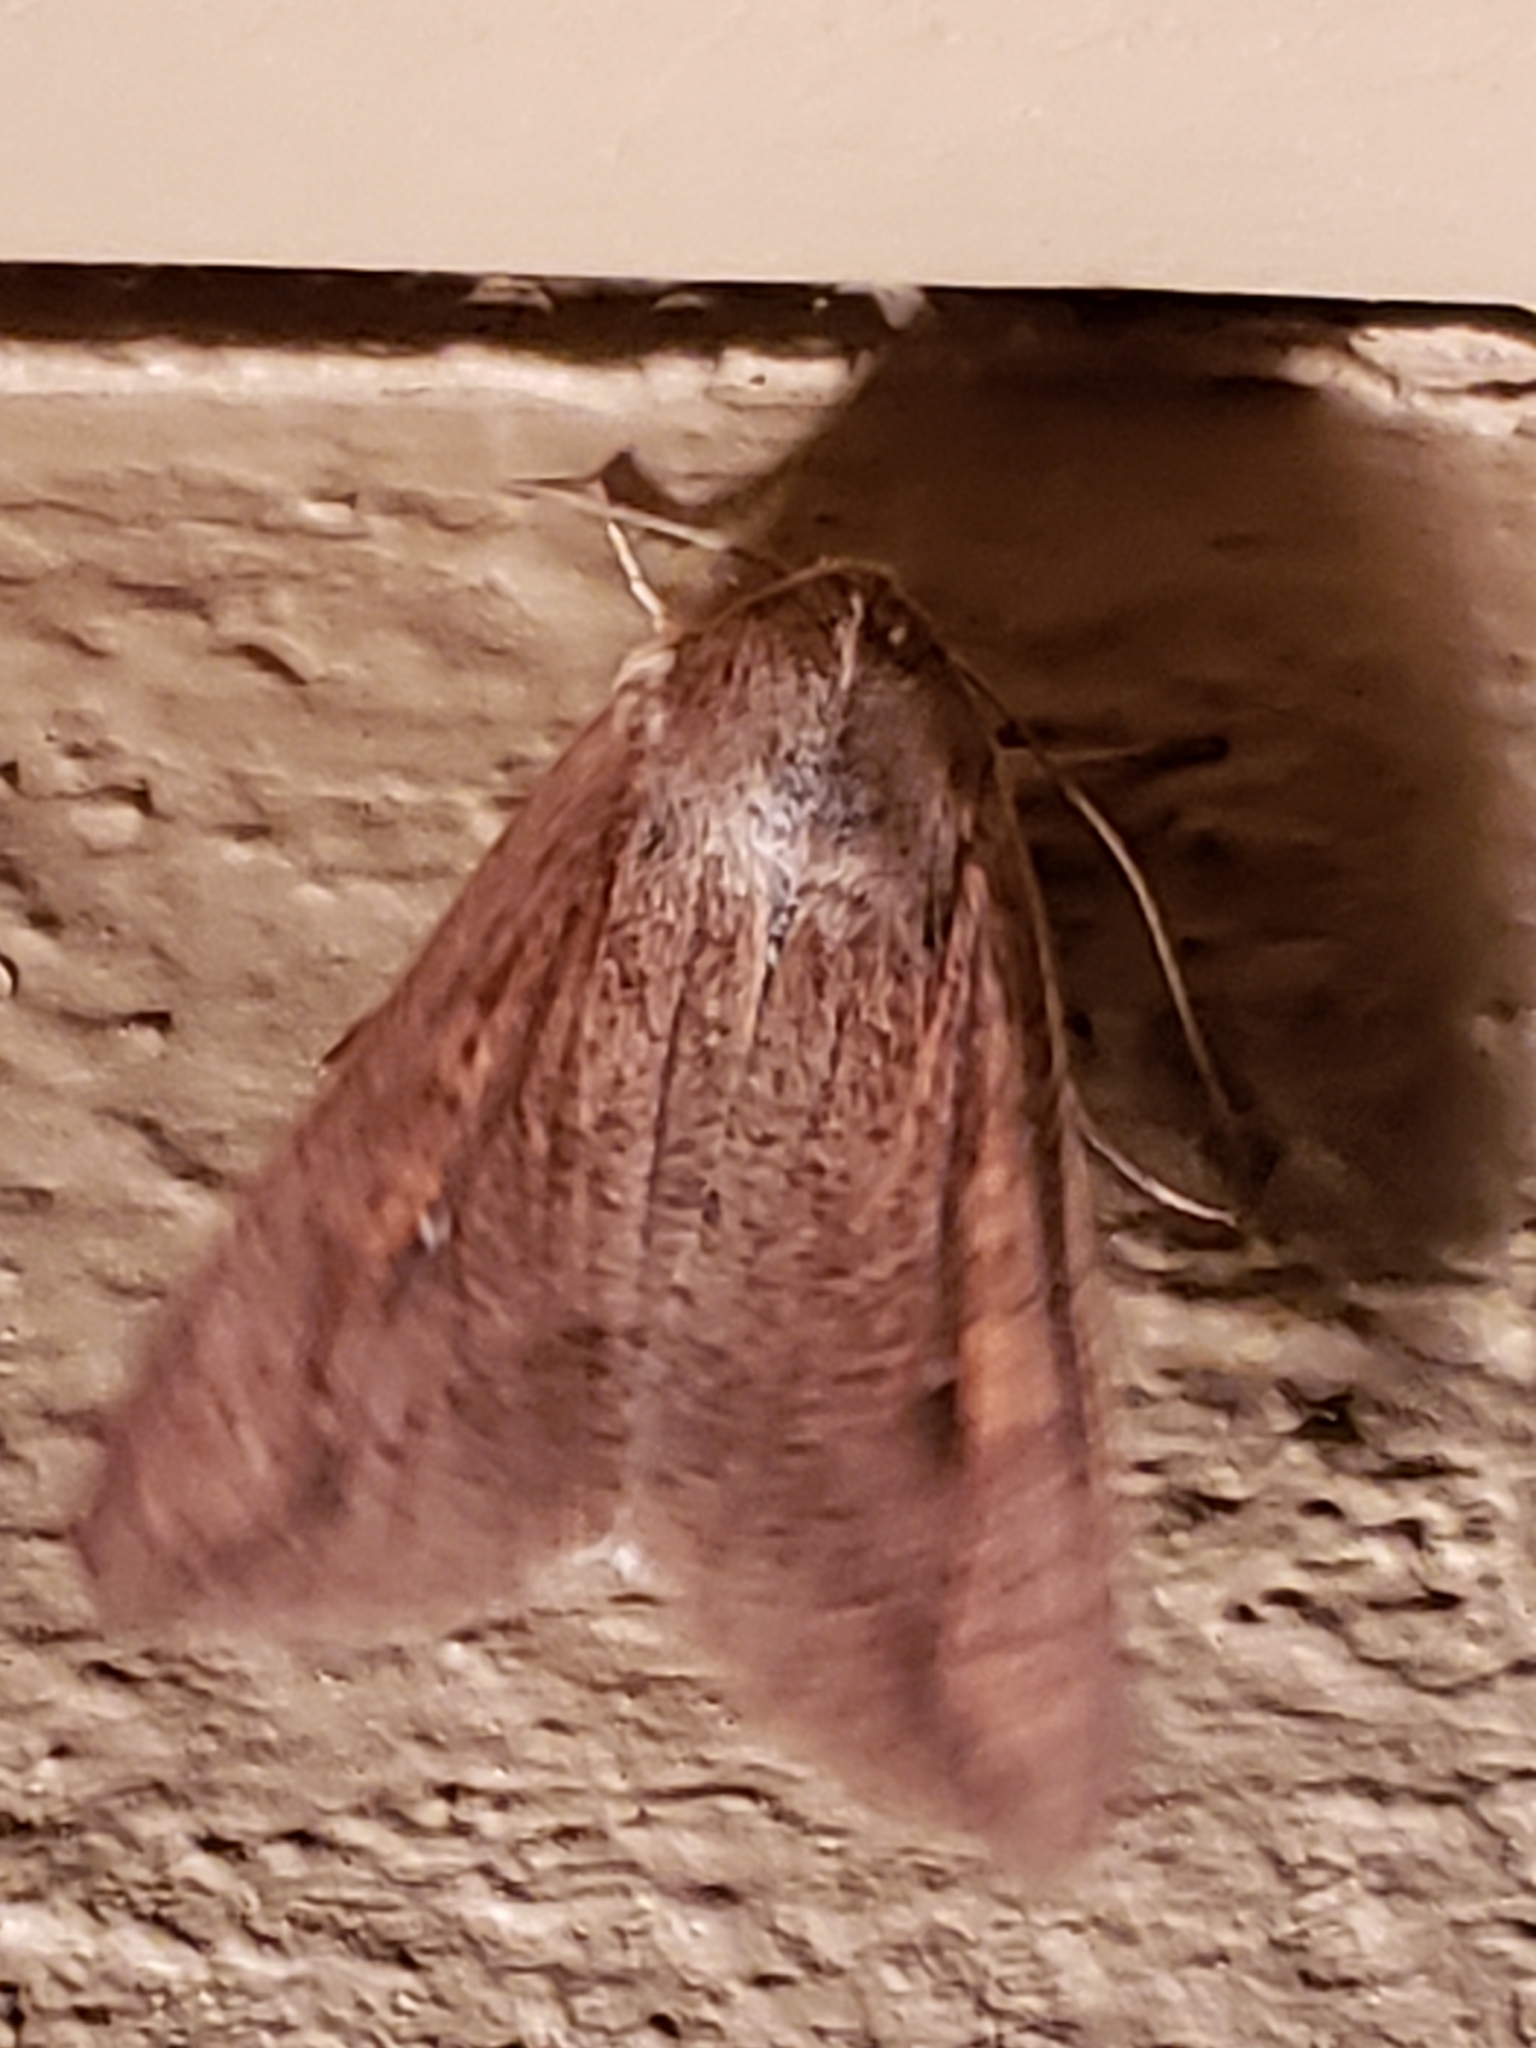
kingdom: Animalia
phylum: Arthropoda
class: Insecta
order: Lepidoptera
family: Noctuidae
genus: Mythimna
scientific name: Mythimna unipuncta
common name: White-speck
